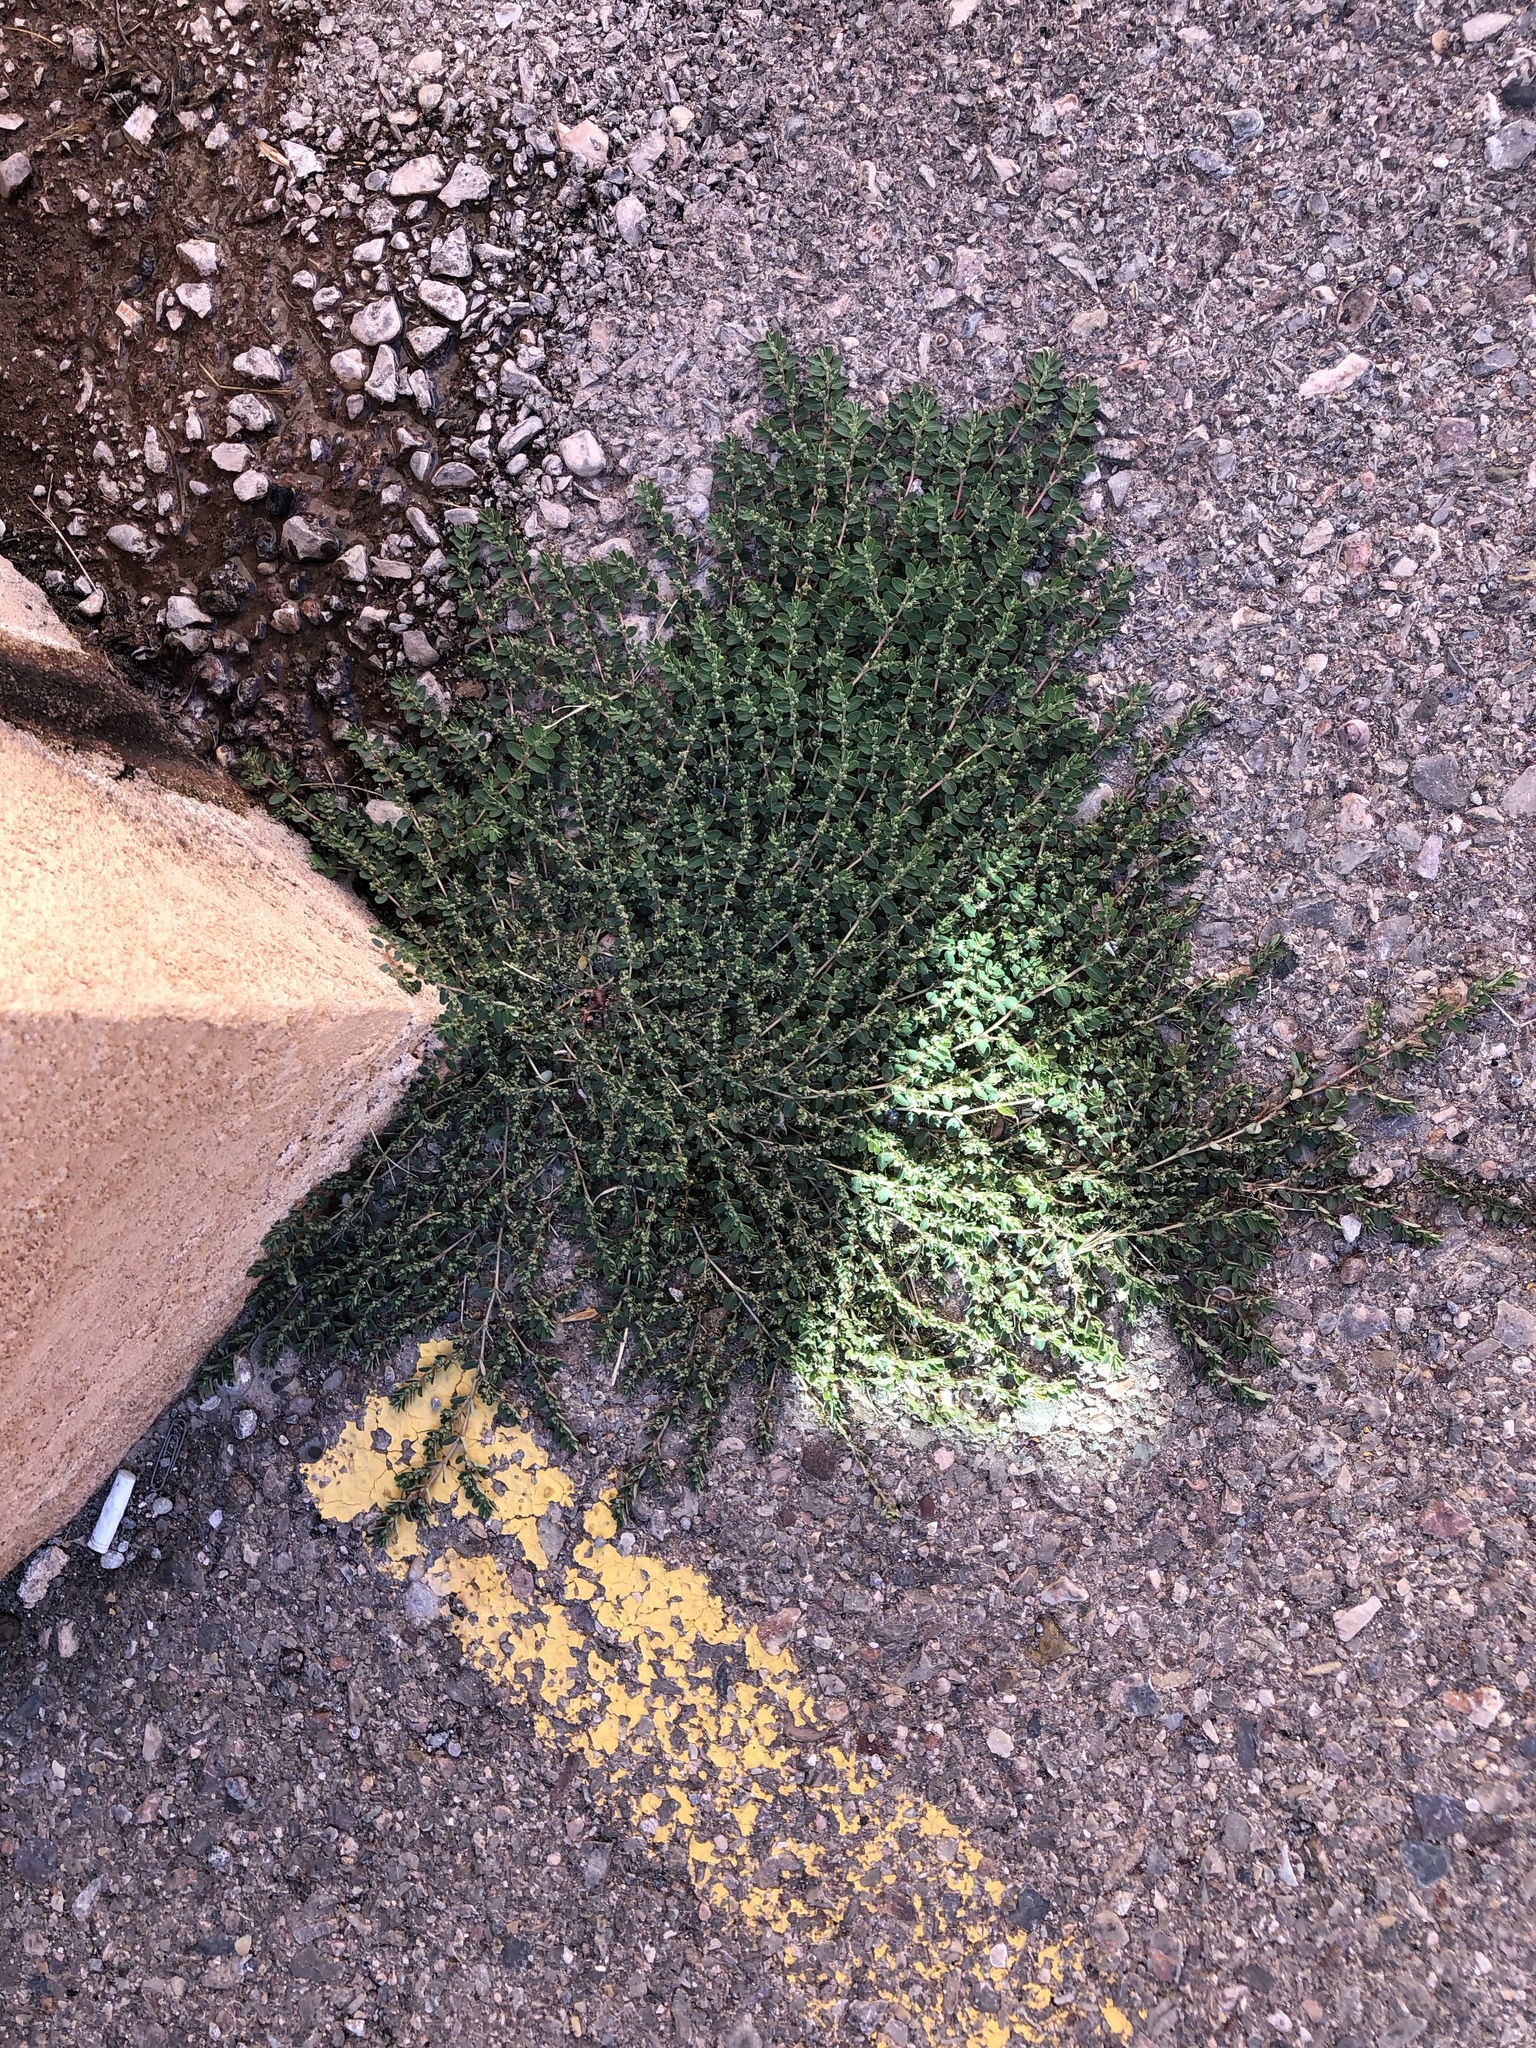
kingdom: Plantae
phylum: Tracheophyta
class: Magnoliopsida
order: Malpighiales
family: Euphorbiaceae
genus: Euphorbia
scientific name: Euphorbia prostrata
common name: Prostrate sandmat
